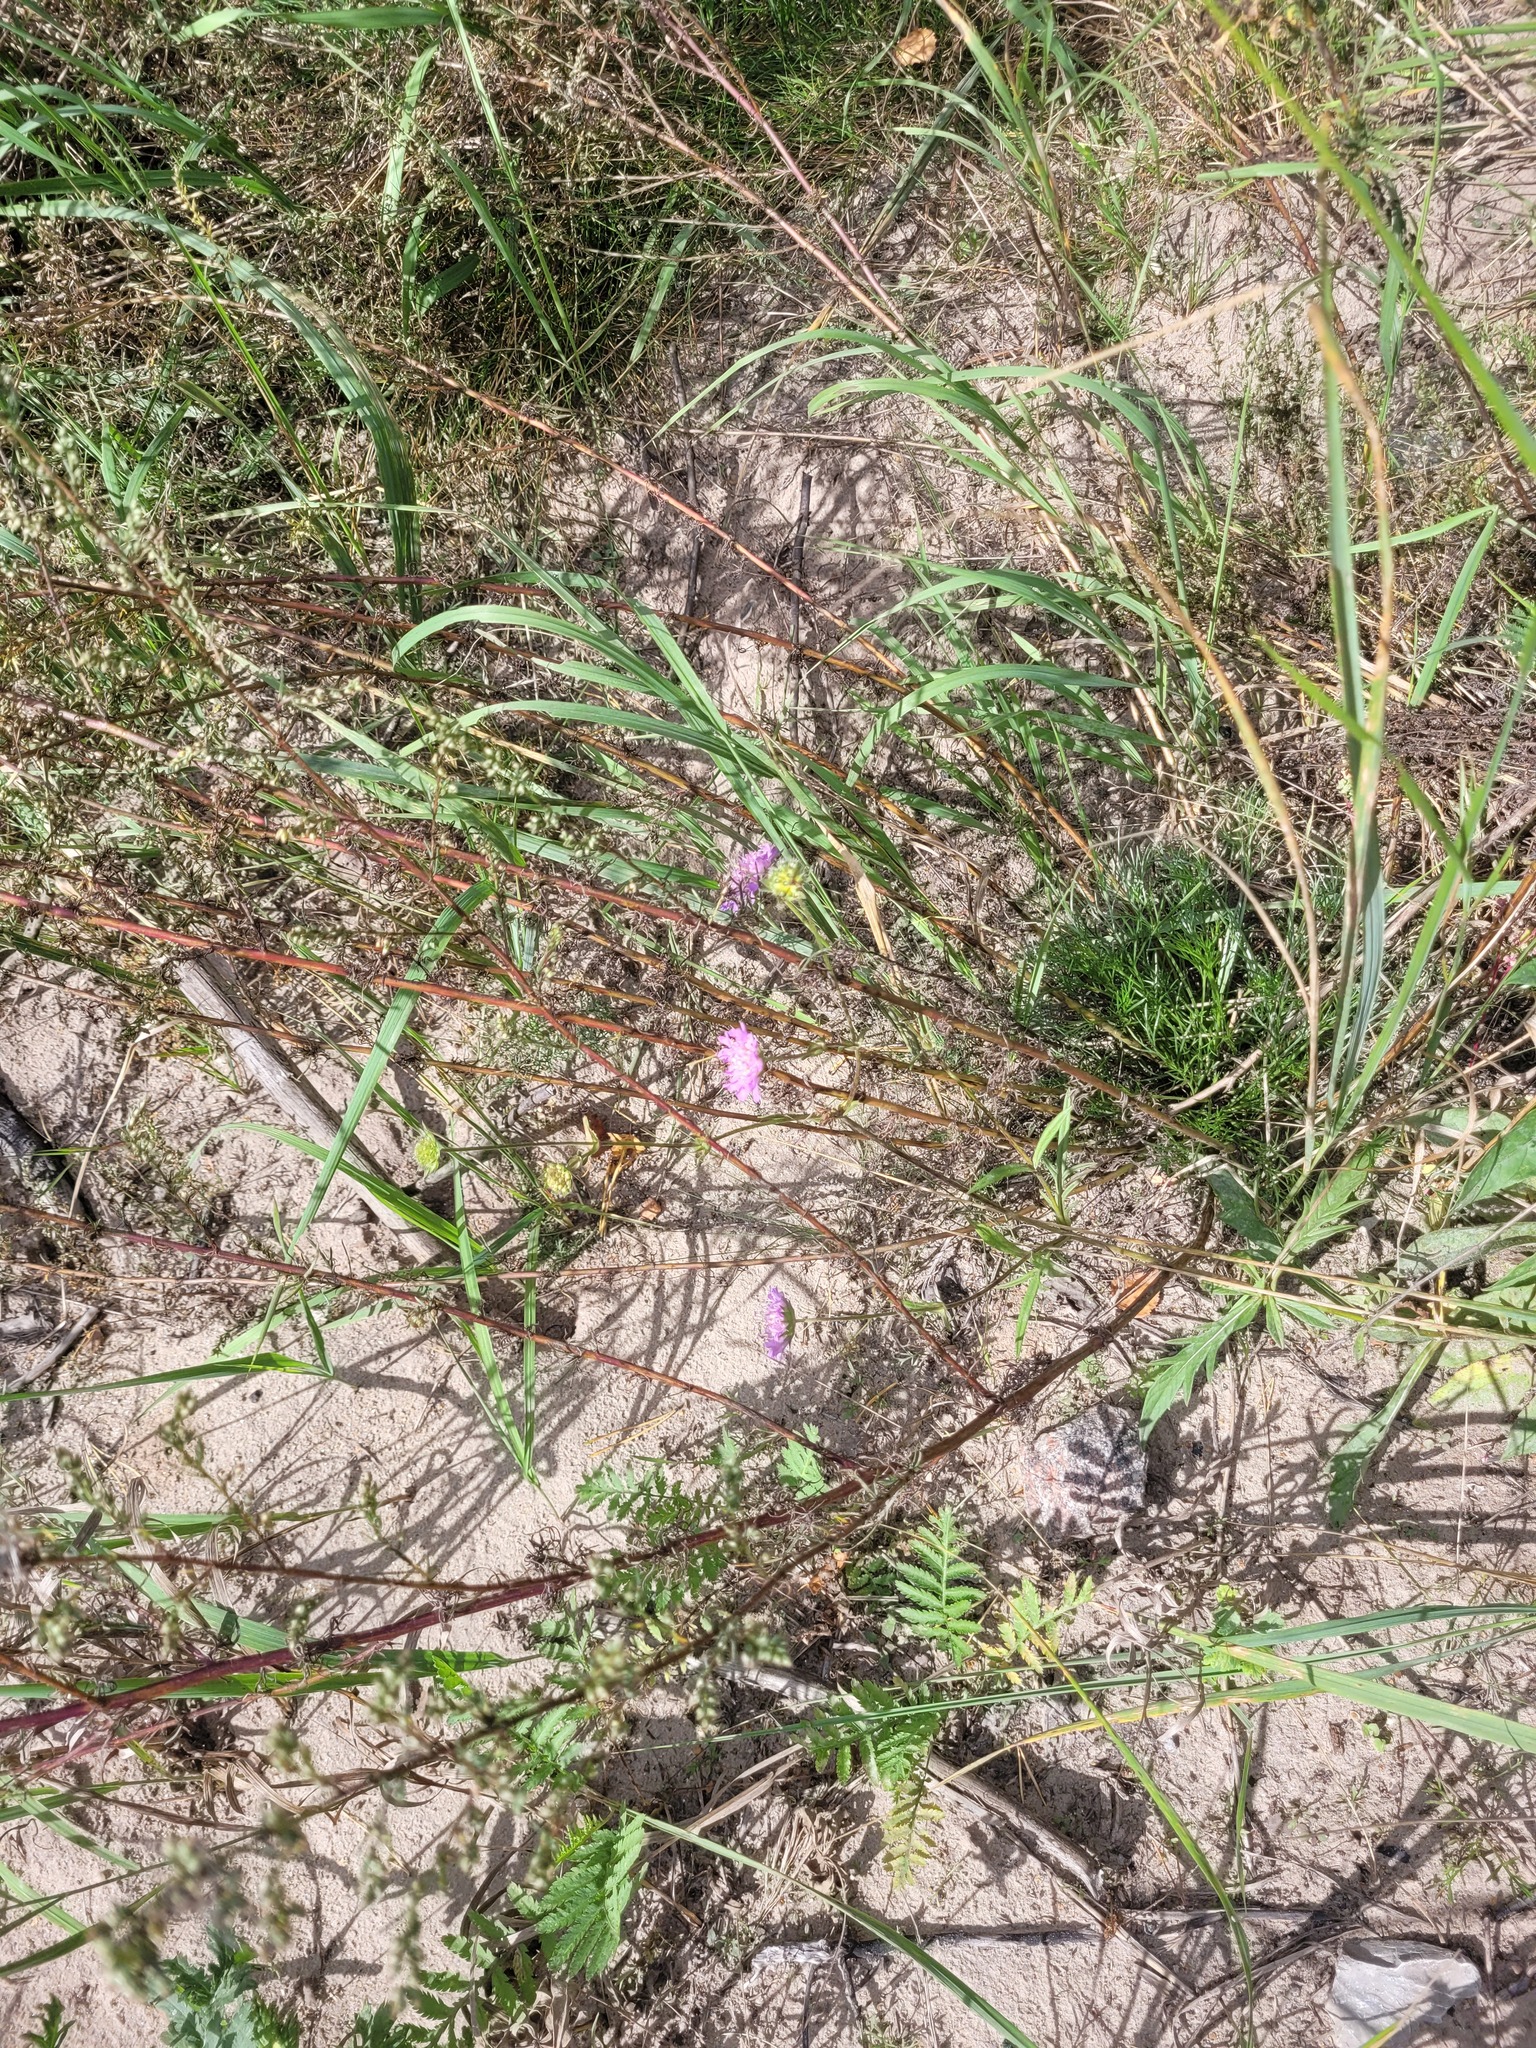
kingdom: Plantae
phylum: Tracheophyta
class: Magnoliopsida
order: Dipsacales
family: Caprifoliaceae
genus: Knautia
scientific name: Knautia arvensis
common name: Field scabiosa
